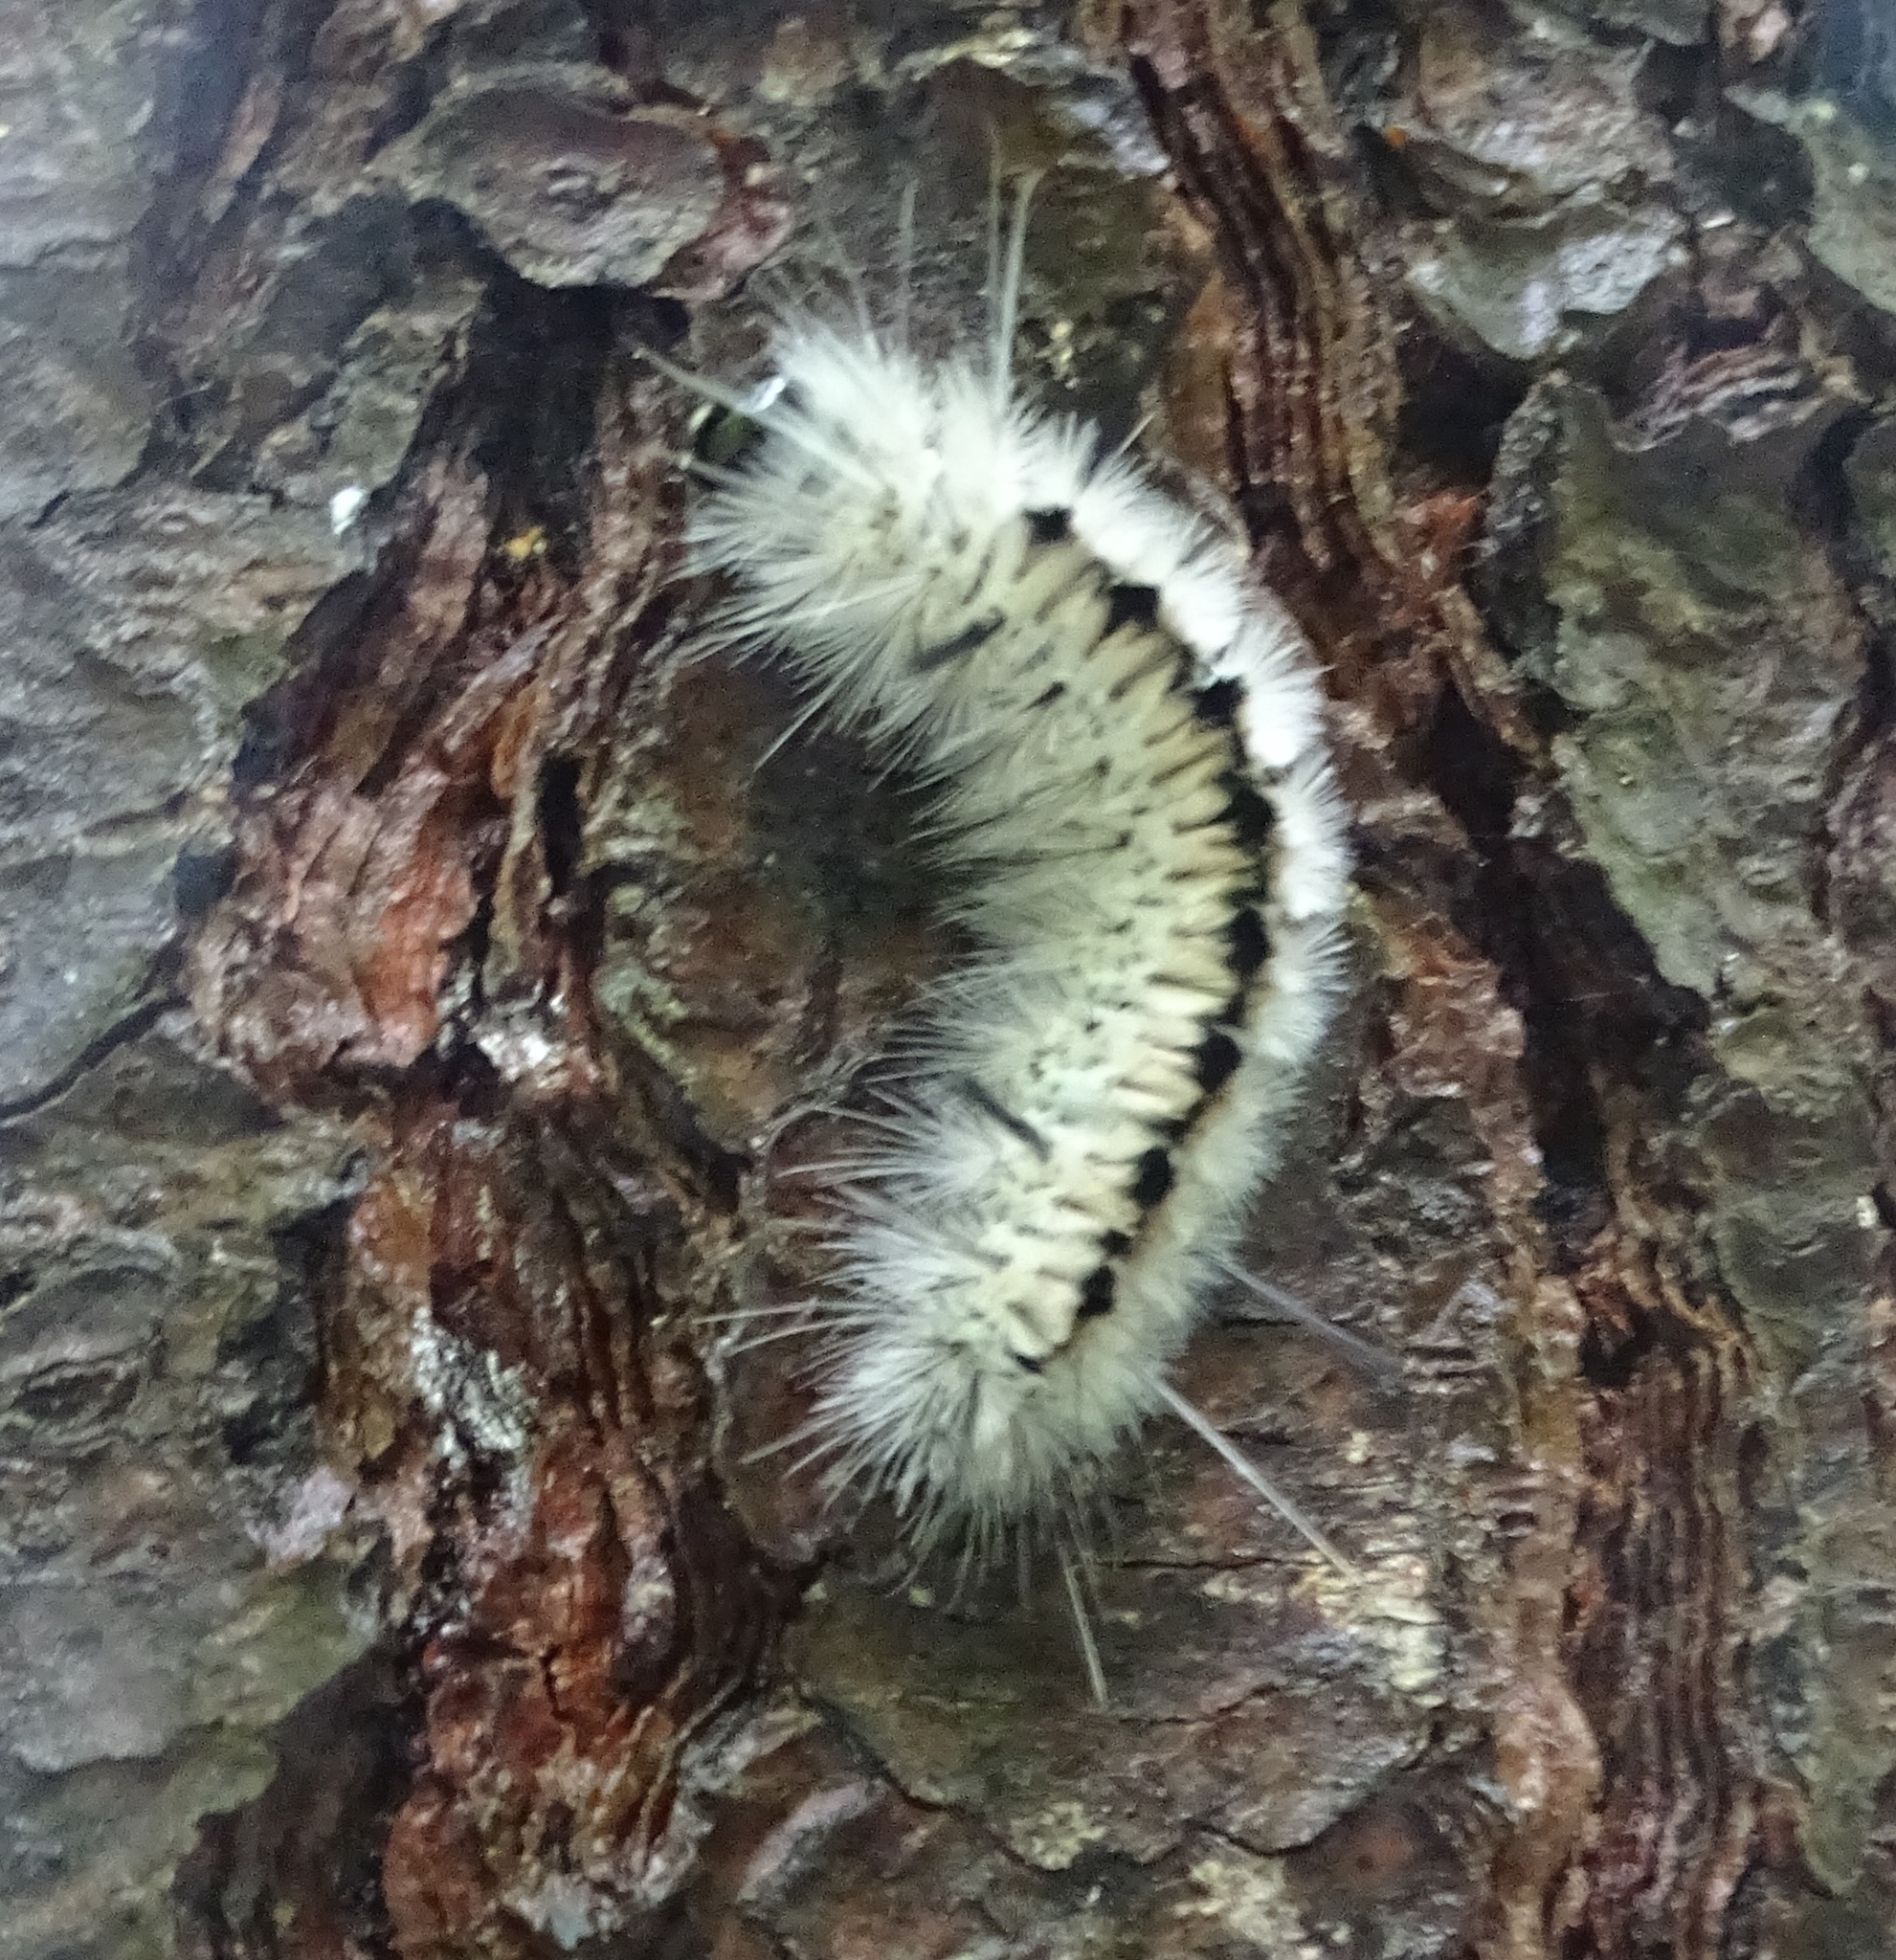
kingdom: Animalia
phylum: Arthropoda
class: Insecta
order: Lepidoptera
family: Erebidae
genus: Lophocampa
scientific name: Lophocampa caryae
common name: Hickory tussock moth
